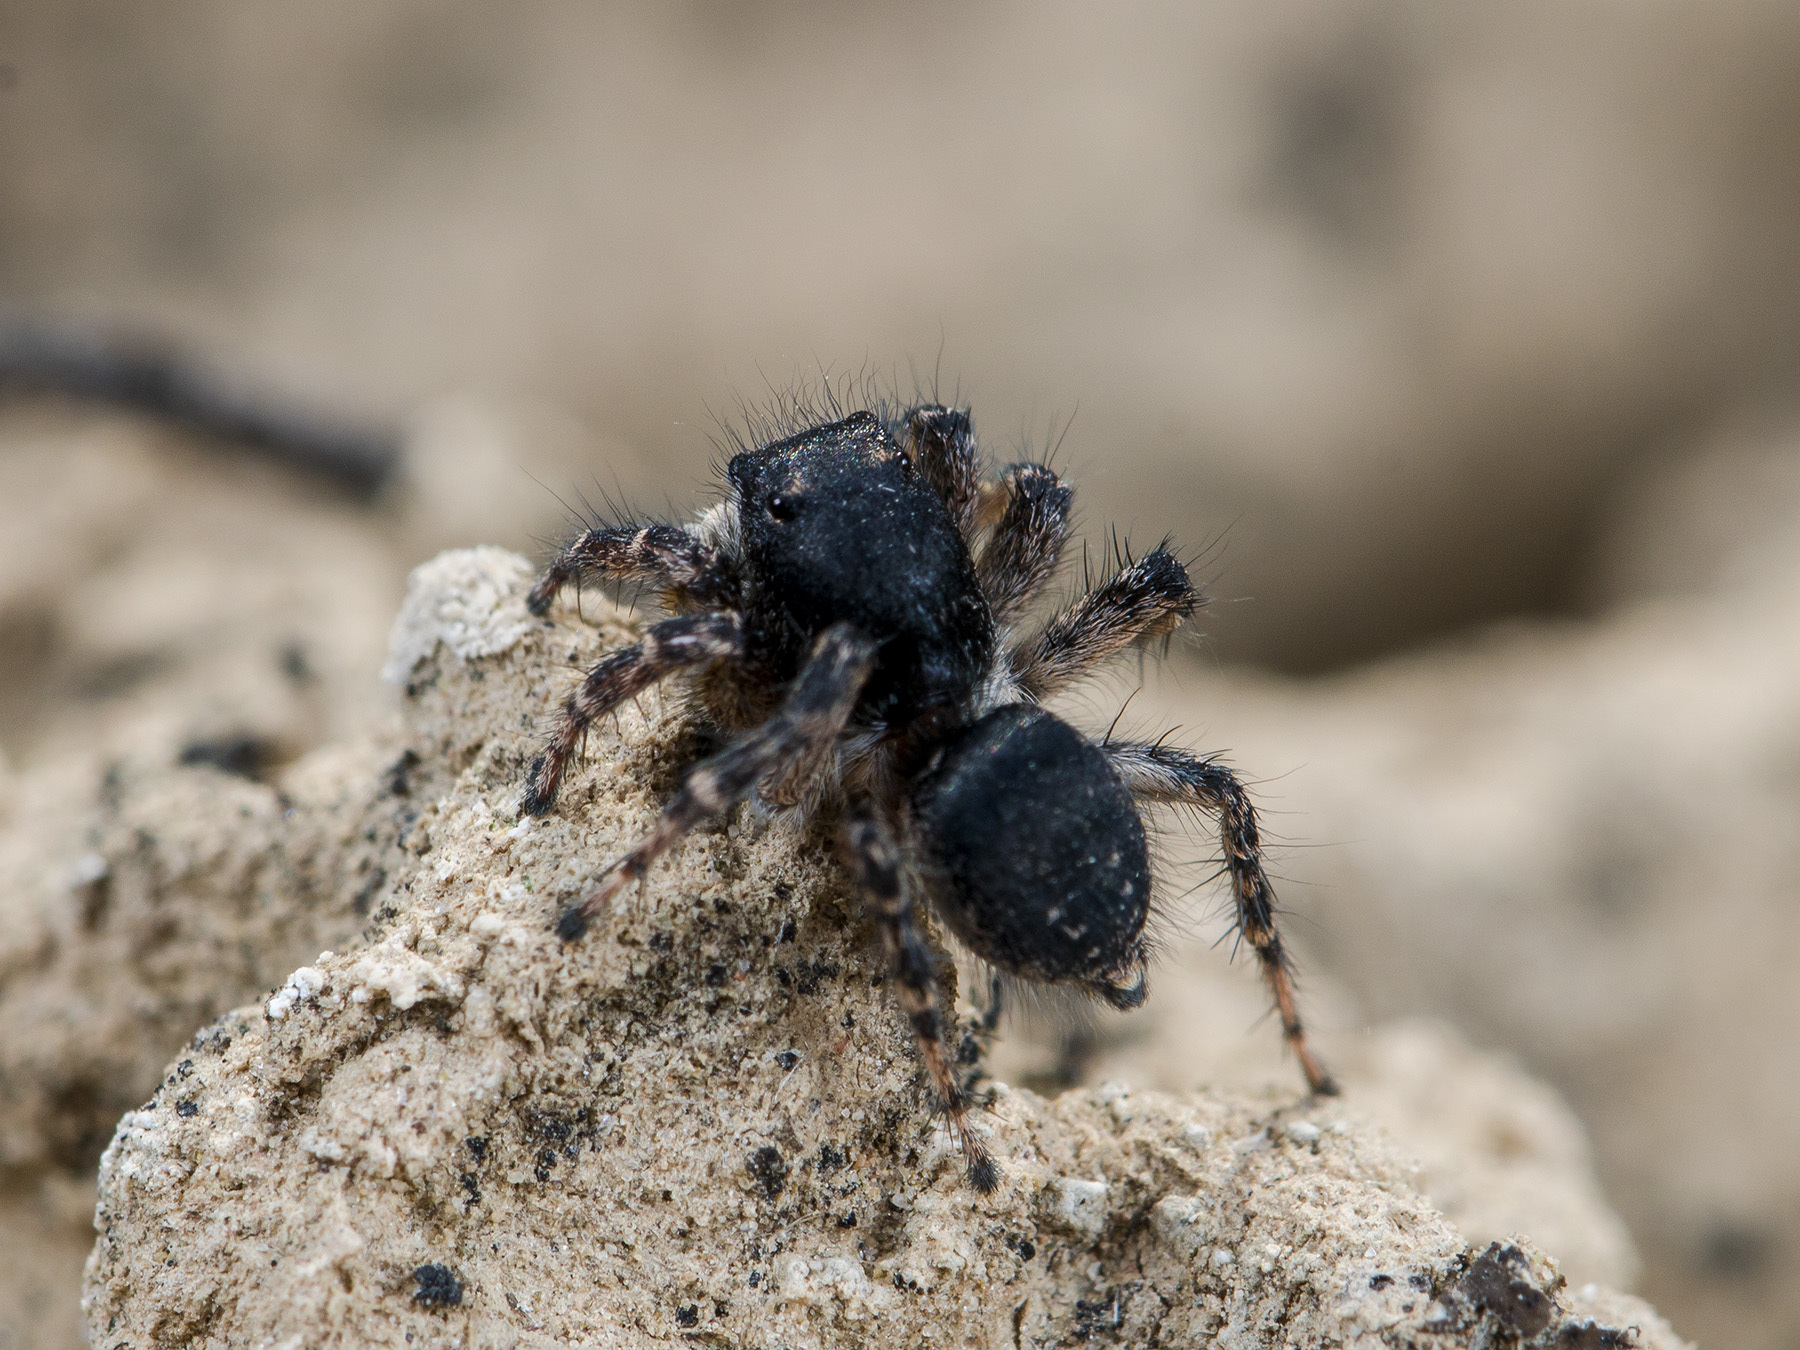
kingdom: Animalia
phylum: Arthropoda
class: Arachnida
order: Araneae
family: Salticidae
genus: Aelurillus
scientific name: Aelurillus dubatolovi
